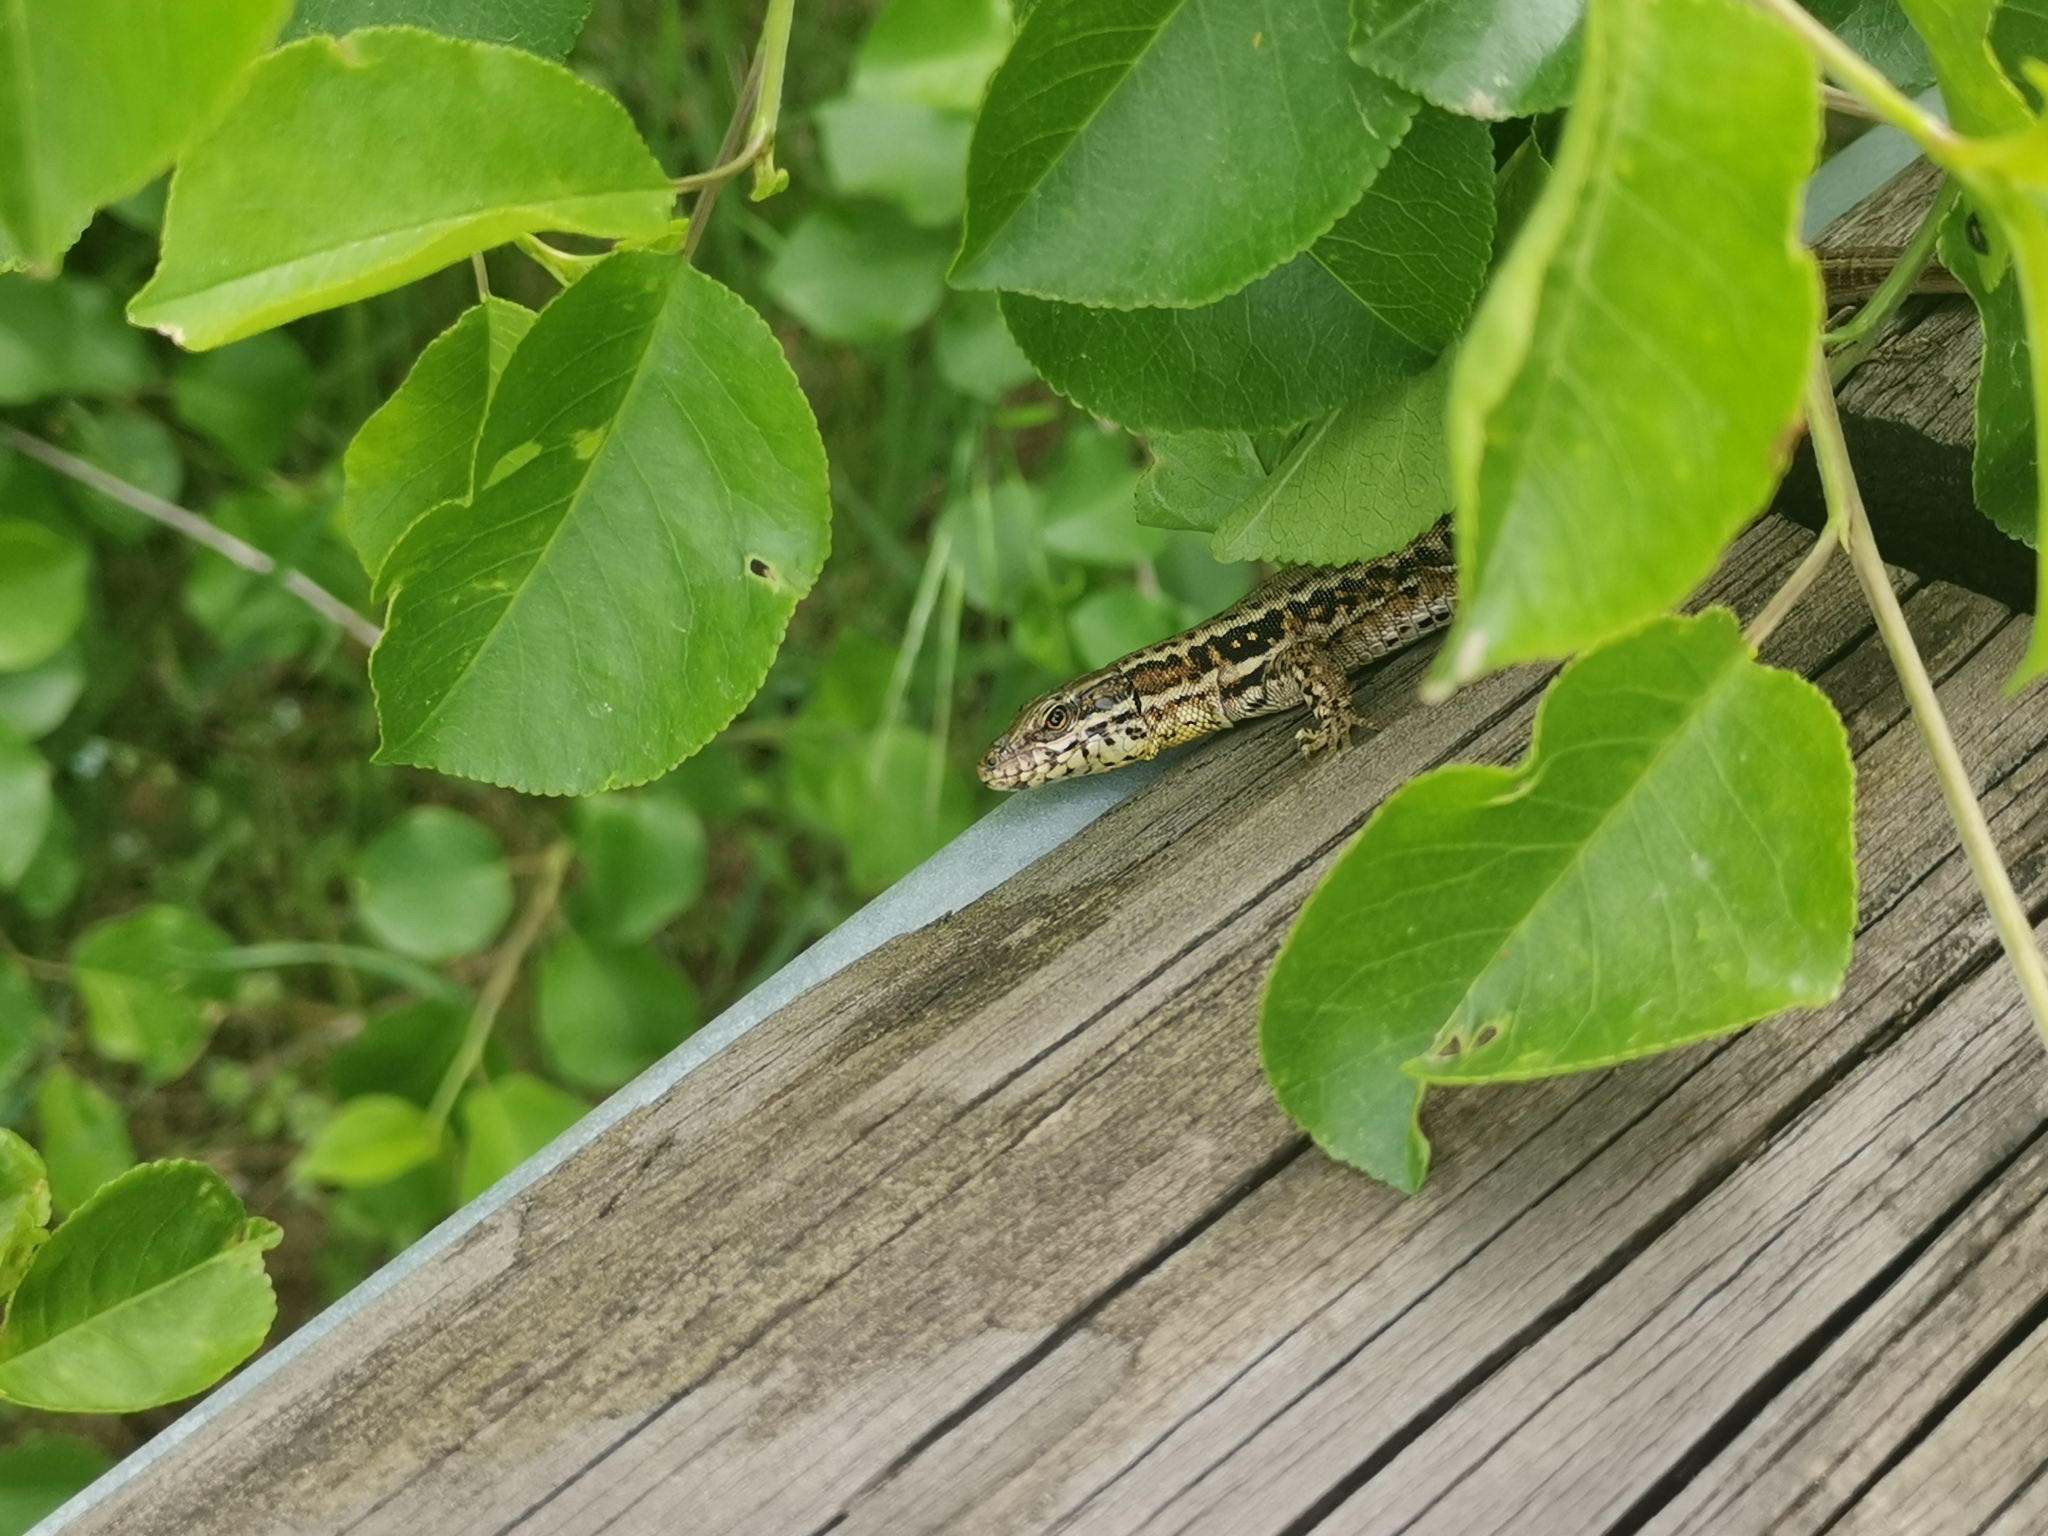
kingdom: Animalia
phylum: Chordata
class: Squamata
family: Lacertidae
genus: Podarcis
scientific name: Podarcis muralis
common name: Common wall lizard
